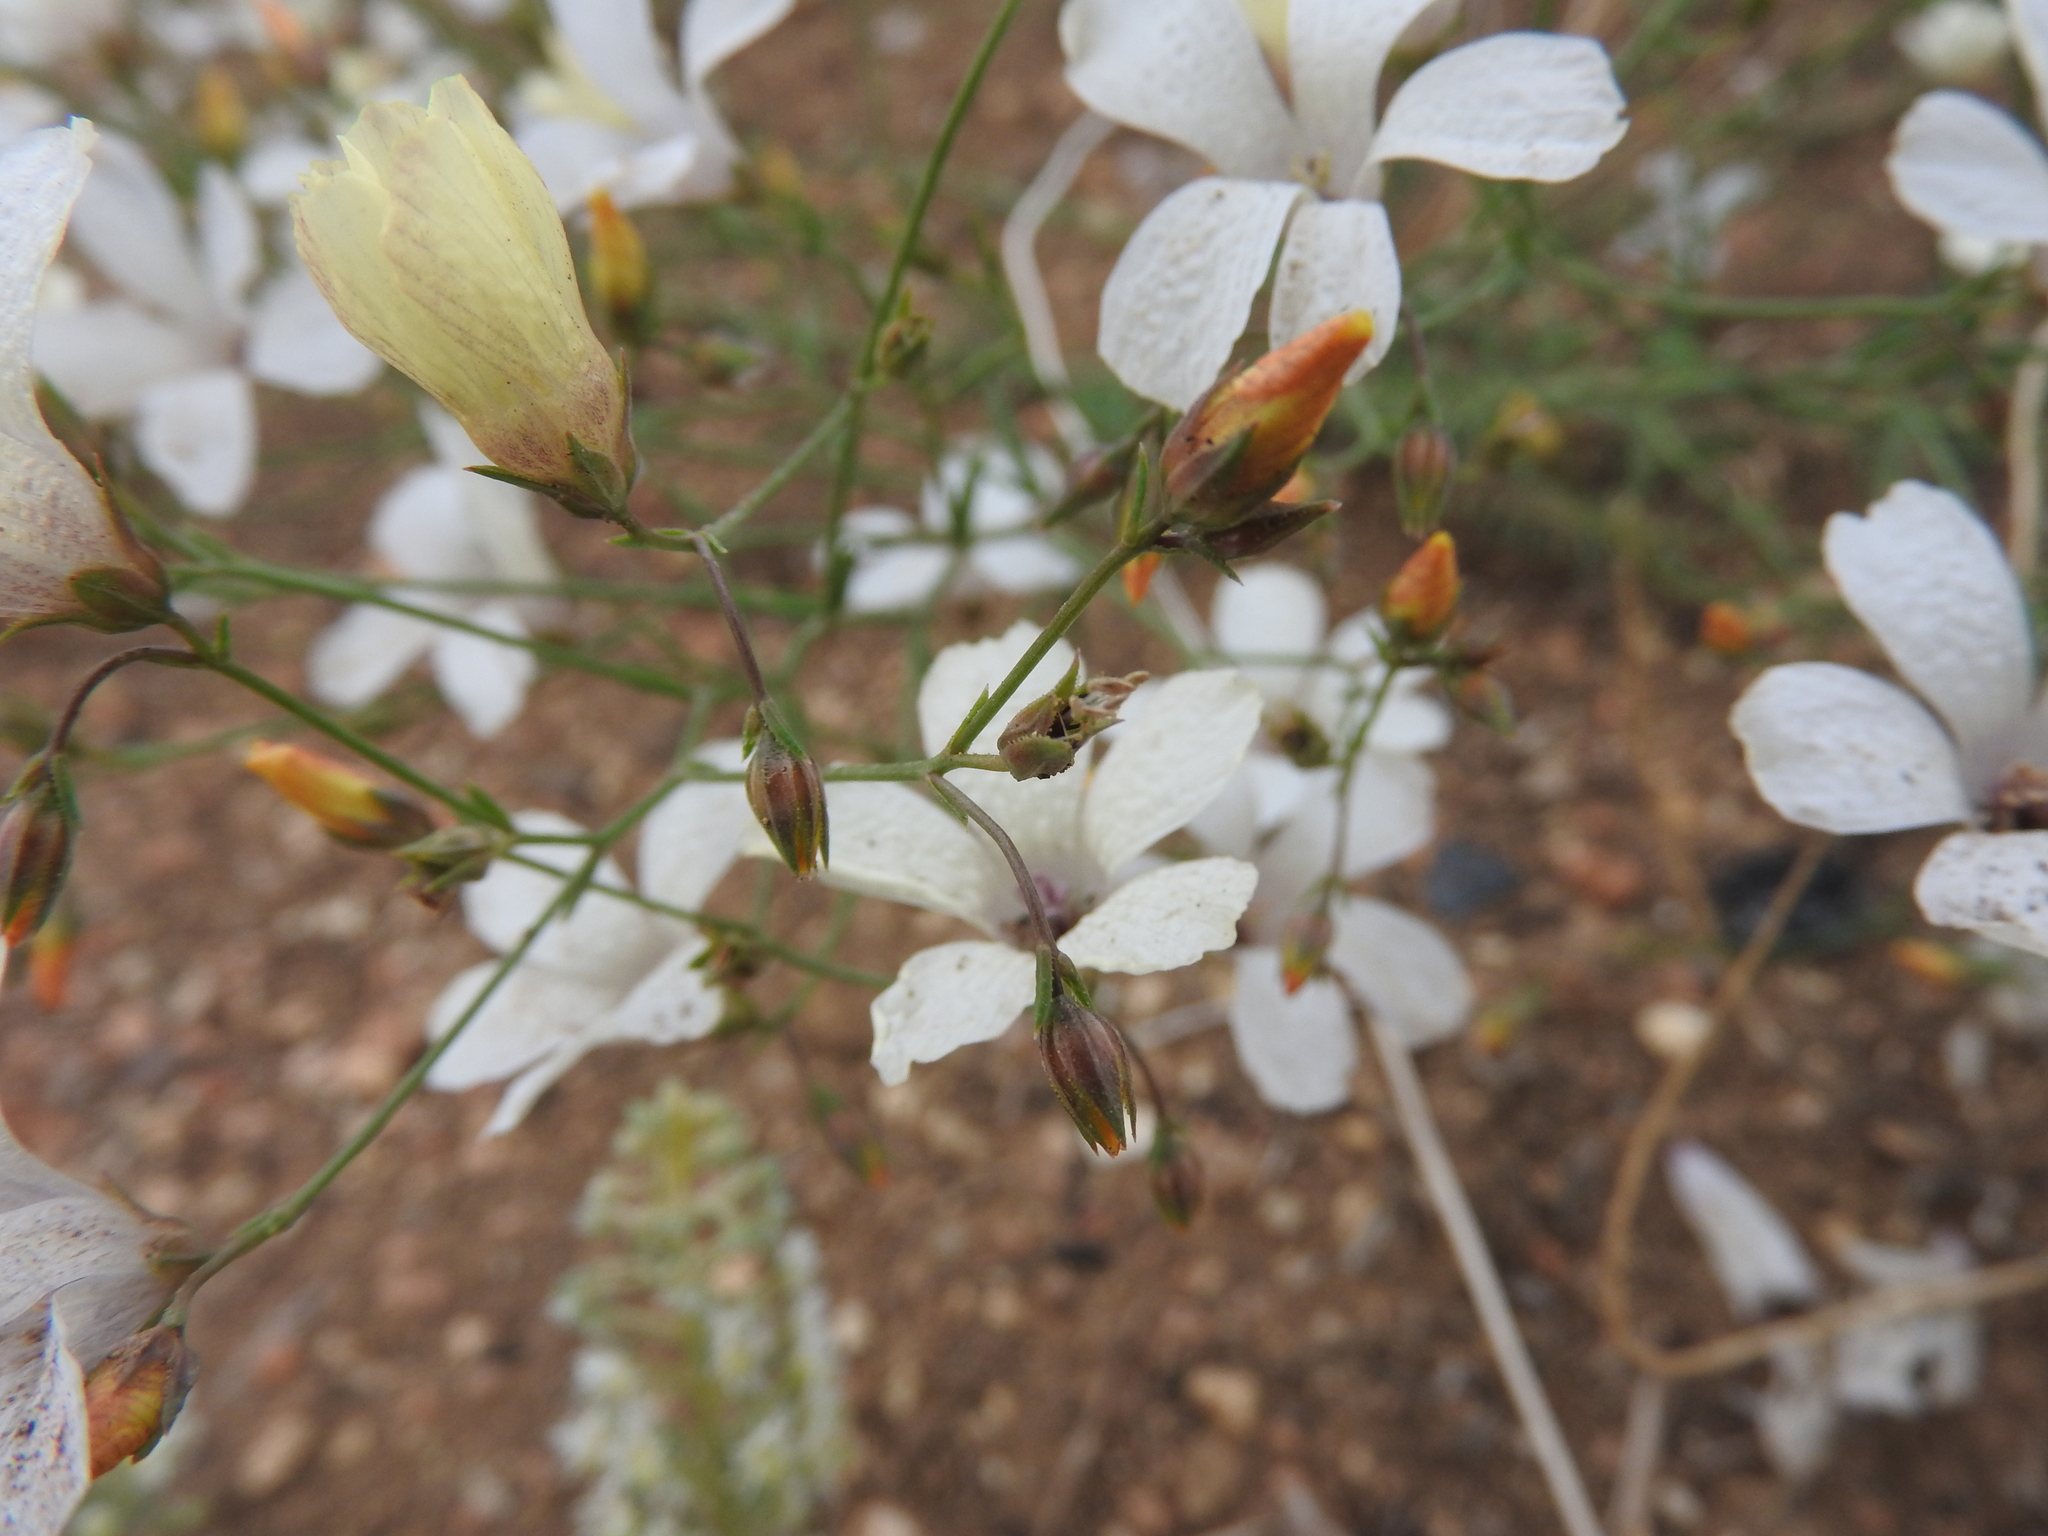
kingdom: Plantae
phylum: Tracheophyta
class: Magnoliopsida
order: Malpighiales
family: Linaceae
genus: Linum
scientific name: Linum suffruticosum
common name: White flax
